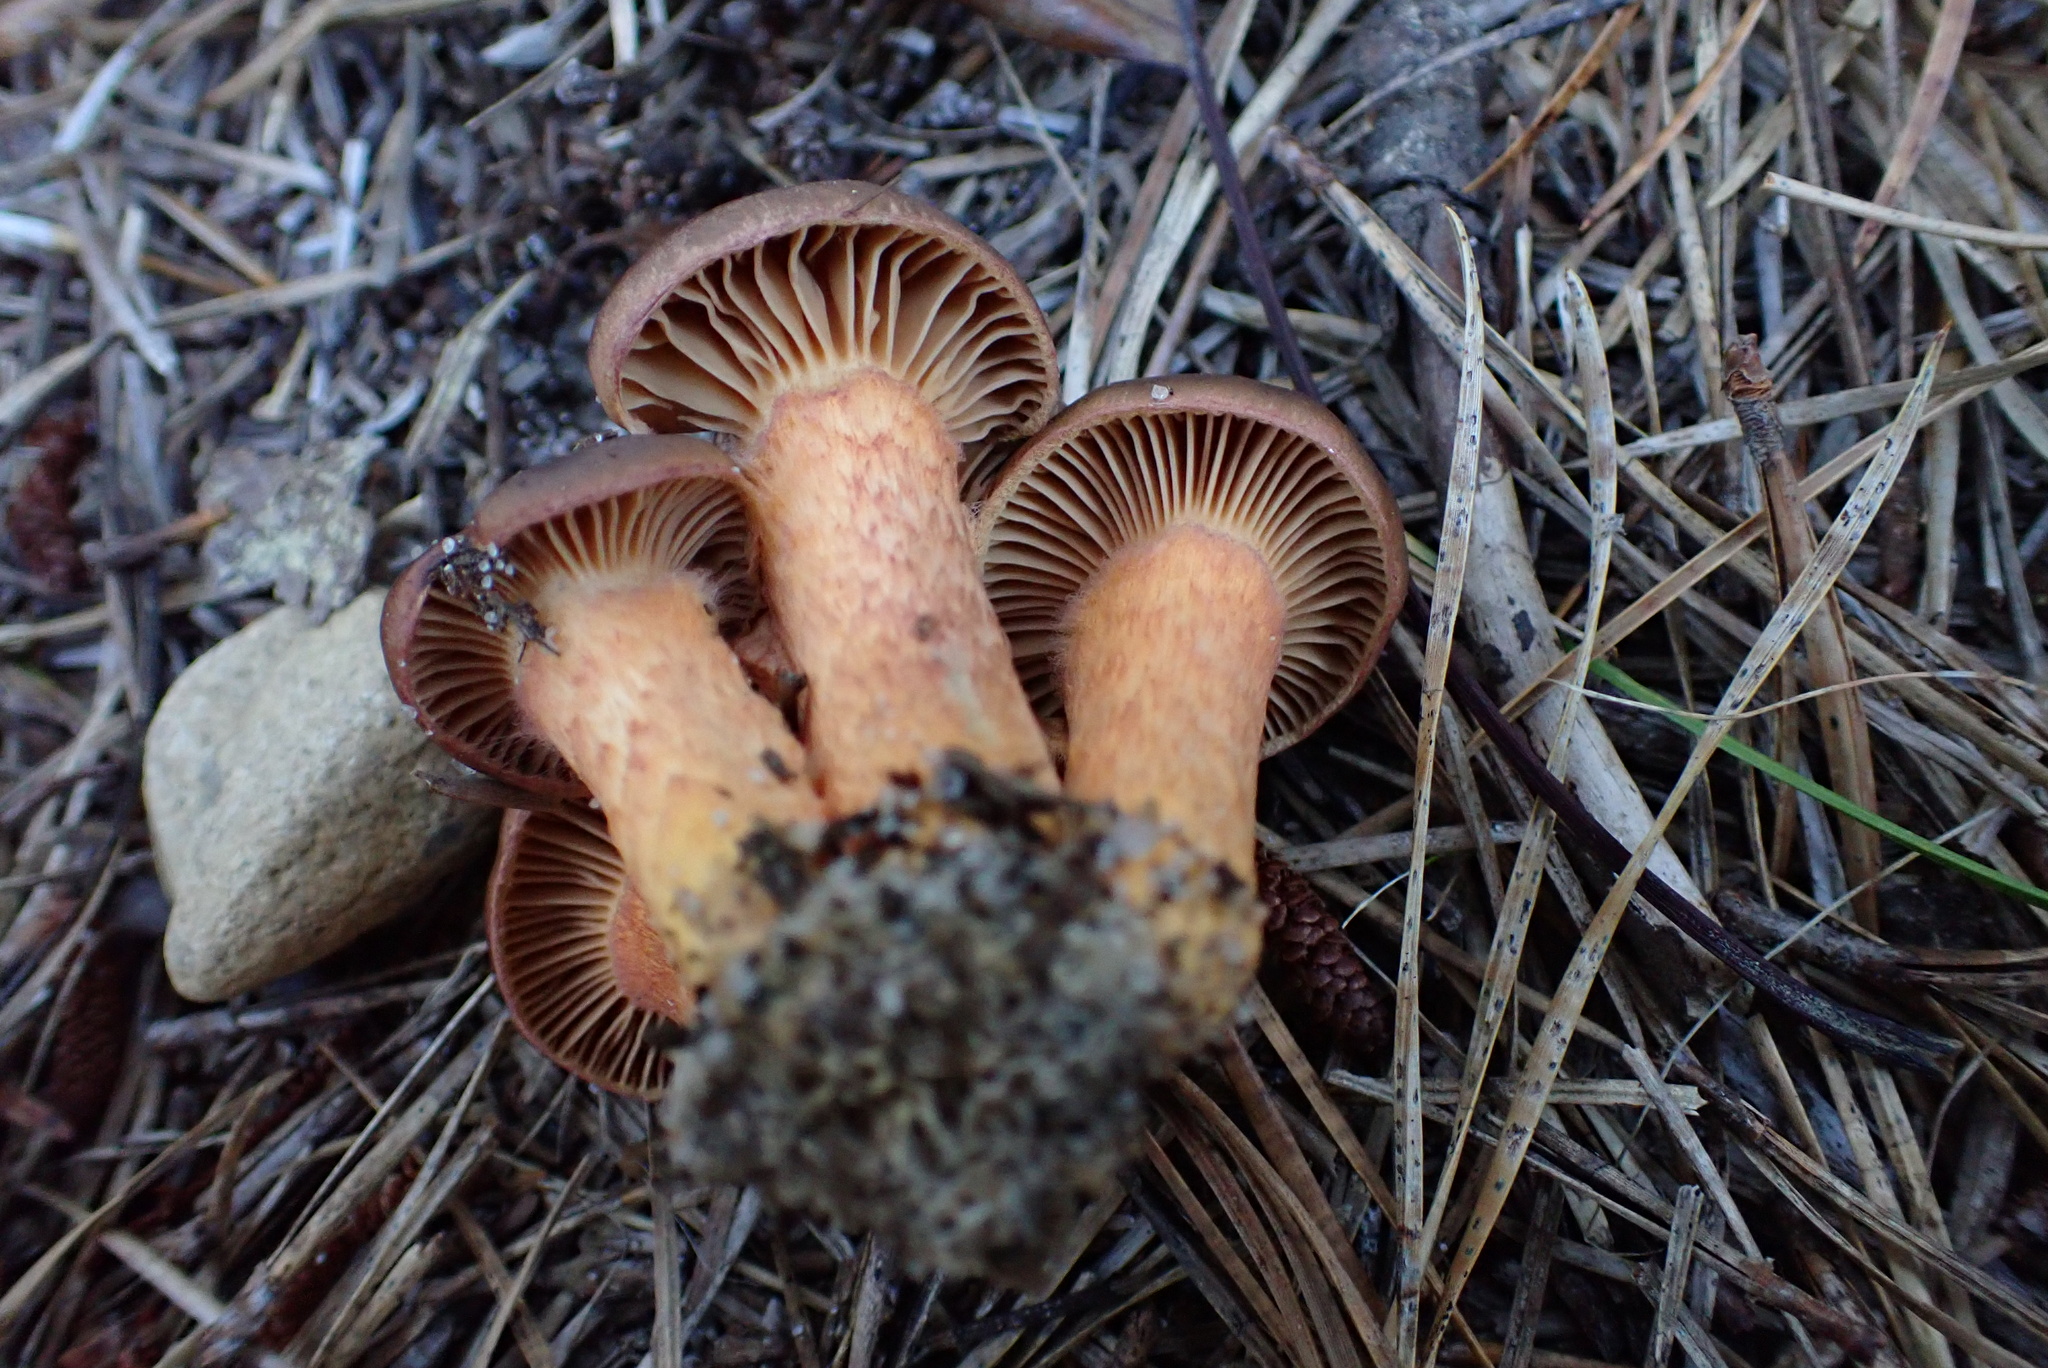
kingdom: Fungi
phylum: Basidiomycota
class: Agaricomycetes
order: Boletales
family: Gomphidiaceae
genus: Chroogomphus
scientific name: Chroogomphus vinicolor
